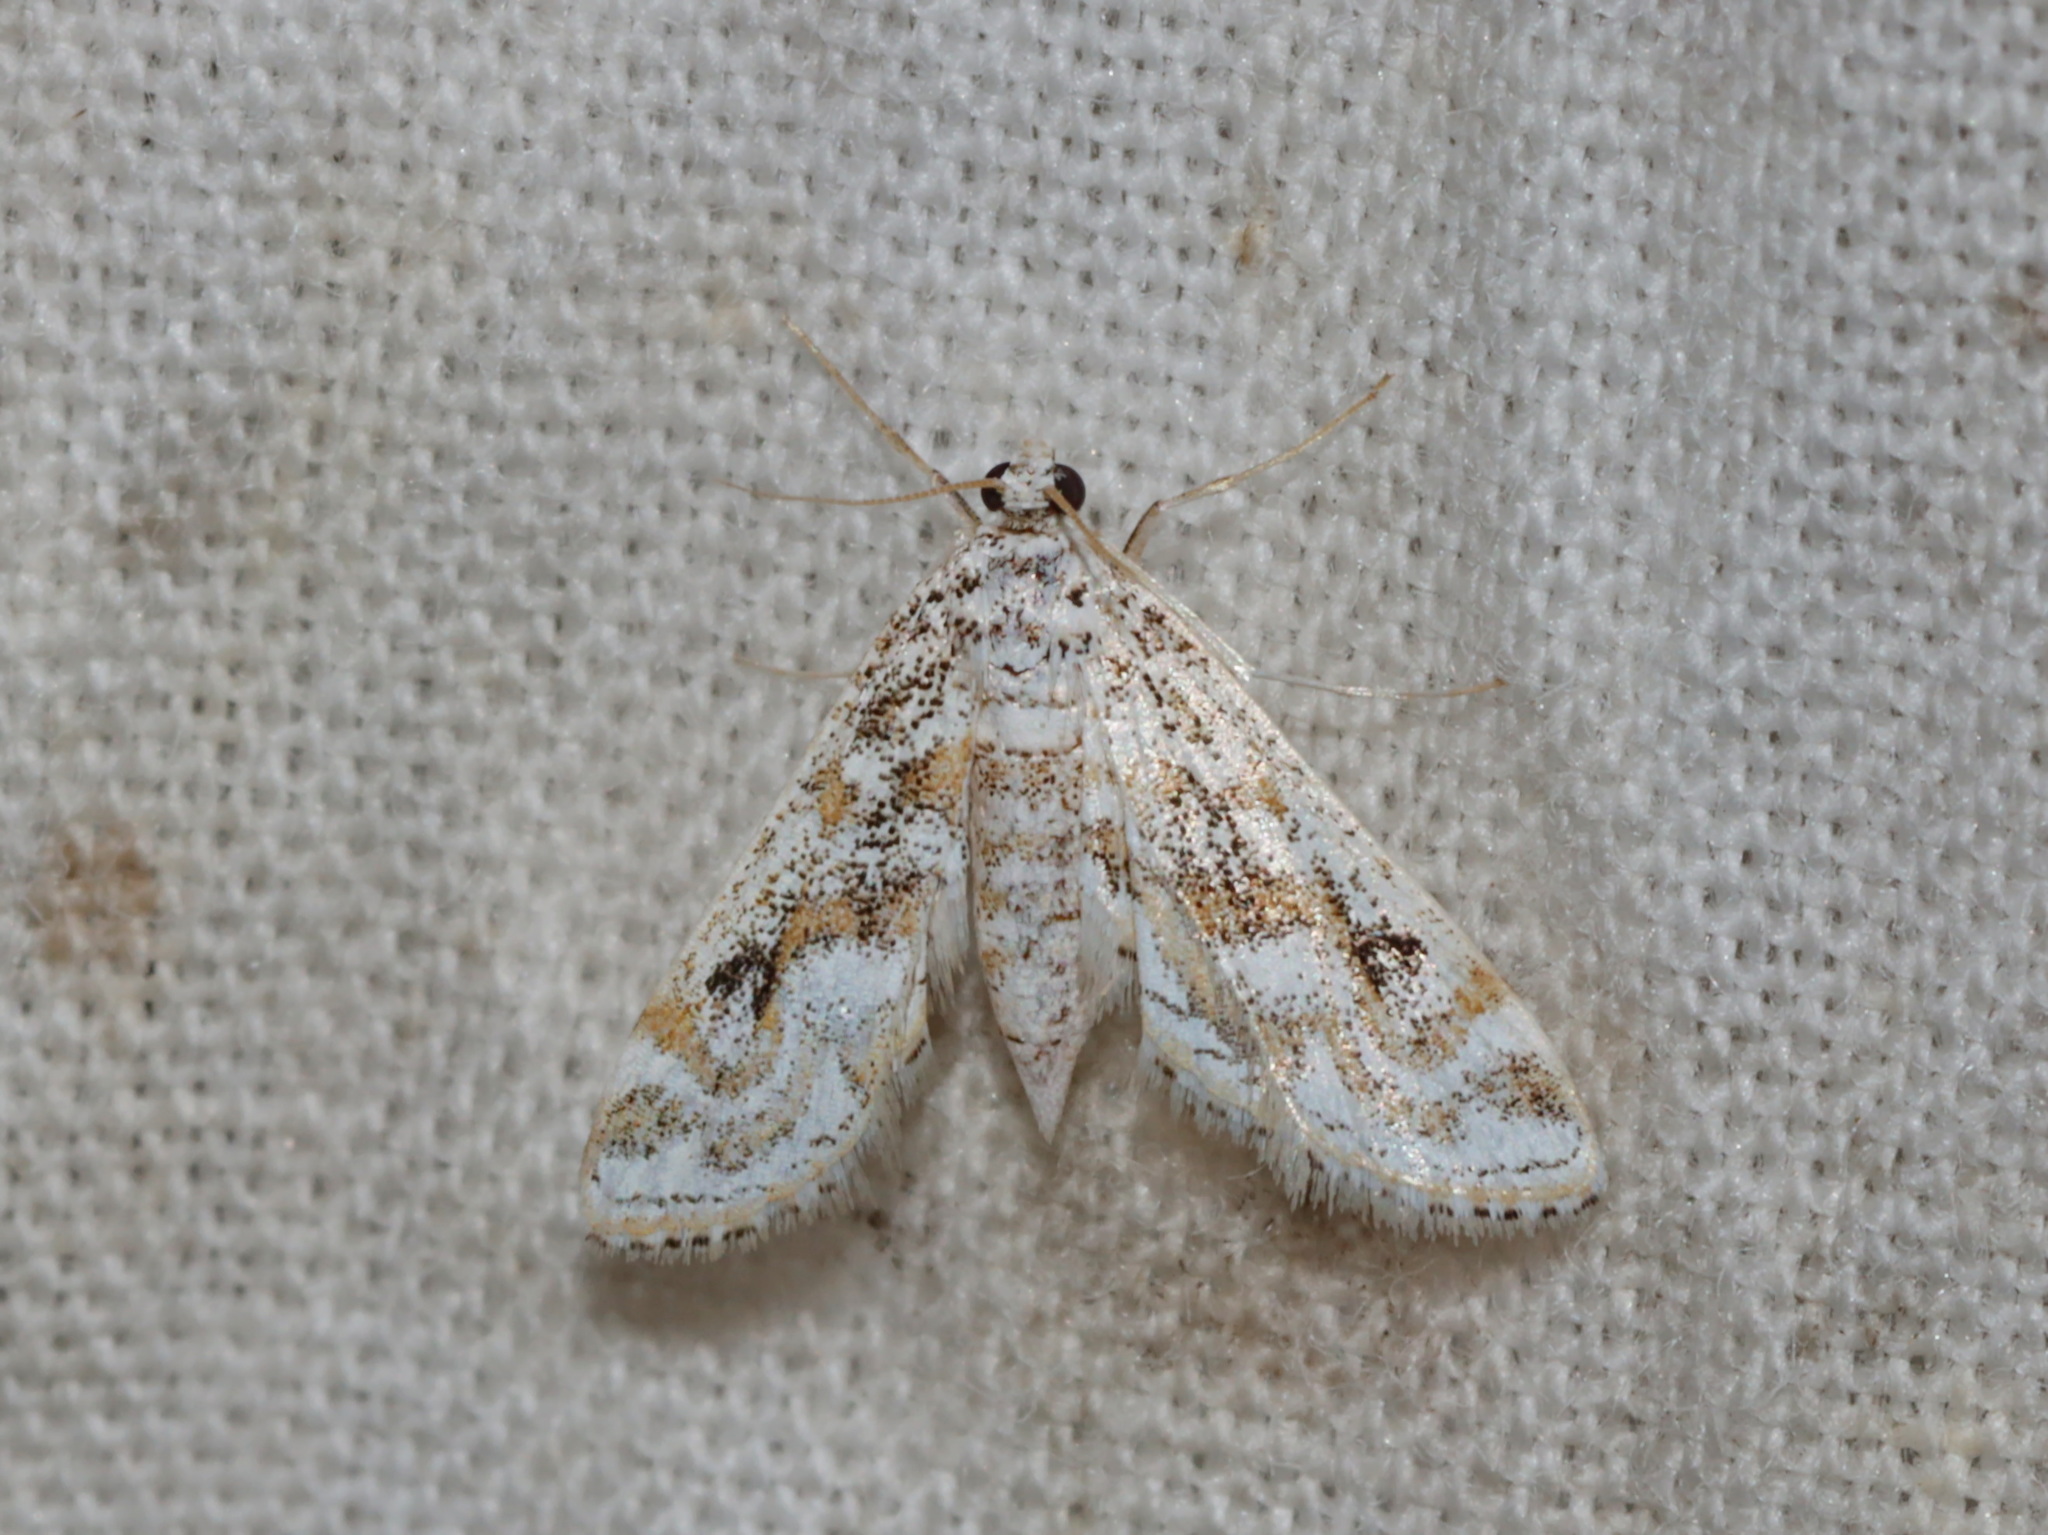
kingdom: Animalia
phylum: Arthropoda
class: Insecta
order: Lepidoptera
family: Crambidae
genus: Parapoynx
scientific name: Parapoynx diminutalis
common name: Hydrilla leafcutter
